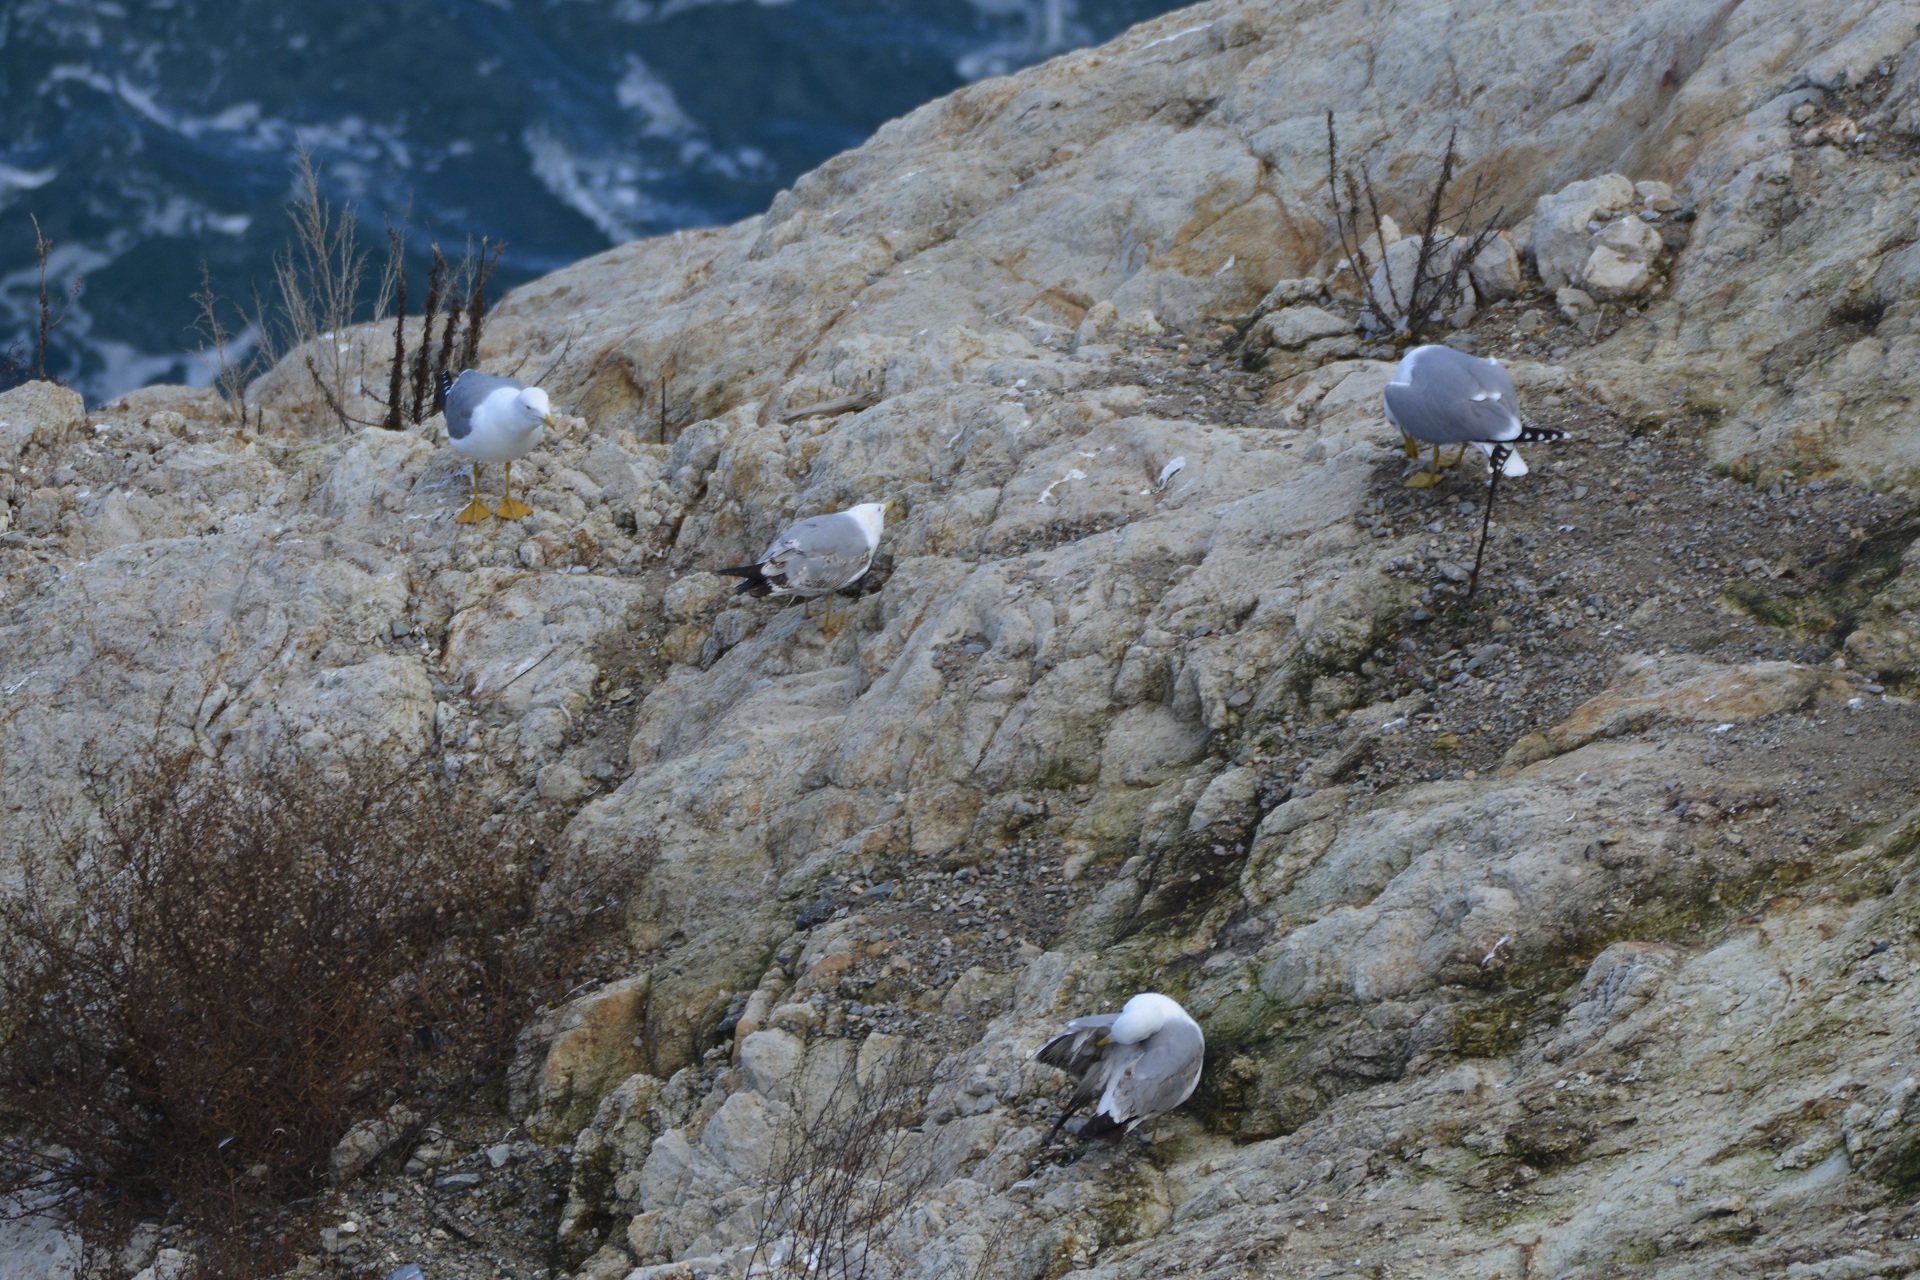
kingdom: Animalia
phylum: Chordata
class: Aves
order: Charadriiformes
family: Laridae
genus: Larus
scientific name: Larus michahellis
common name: Yellow-legged gull
